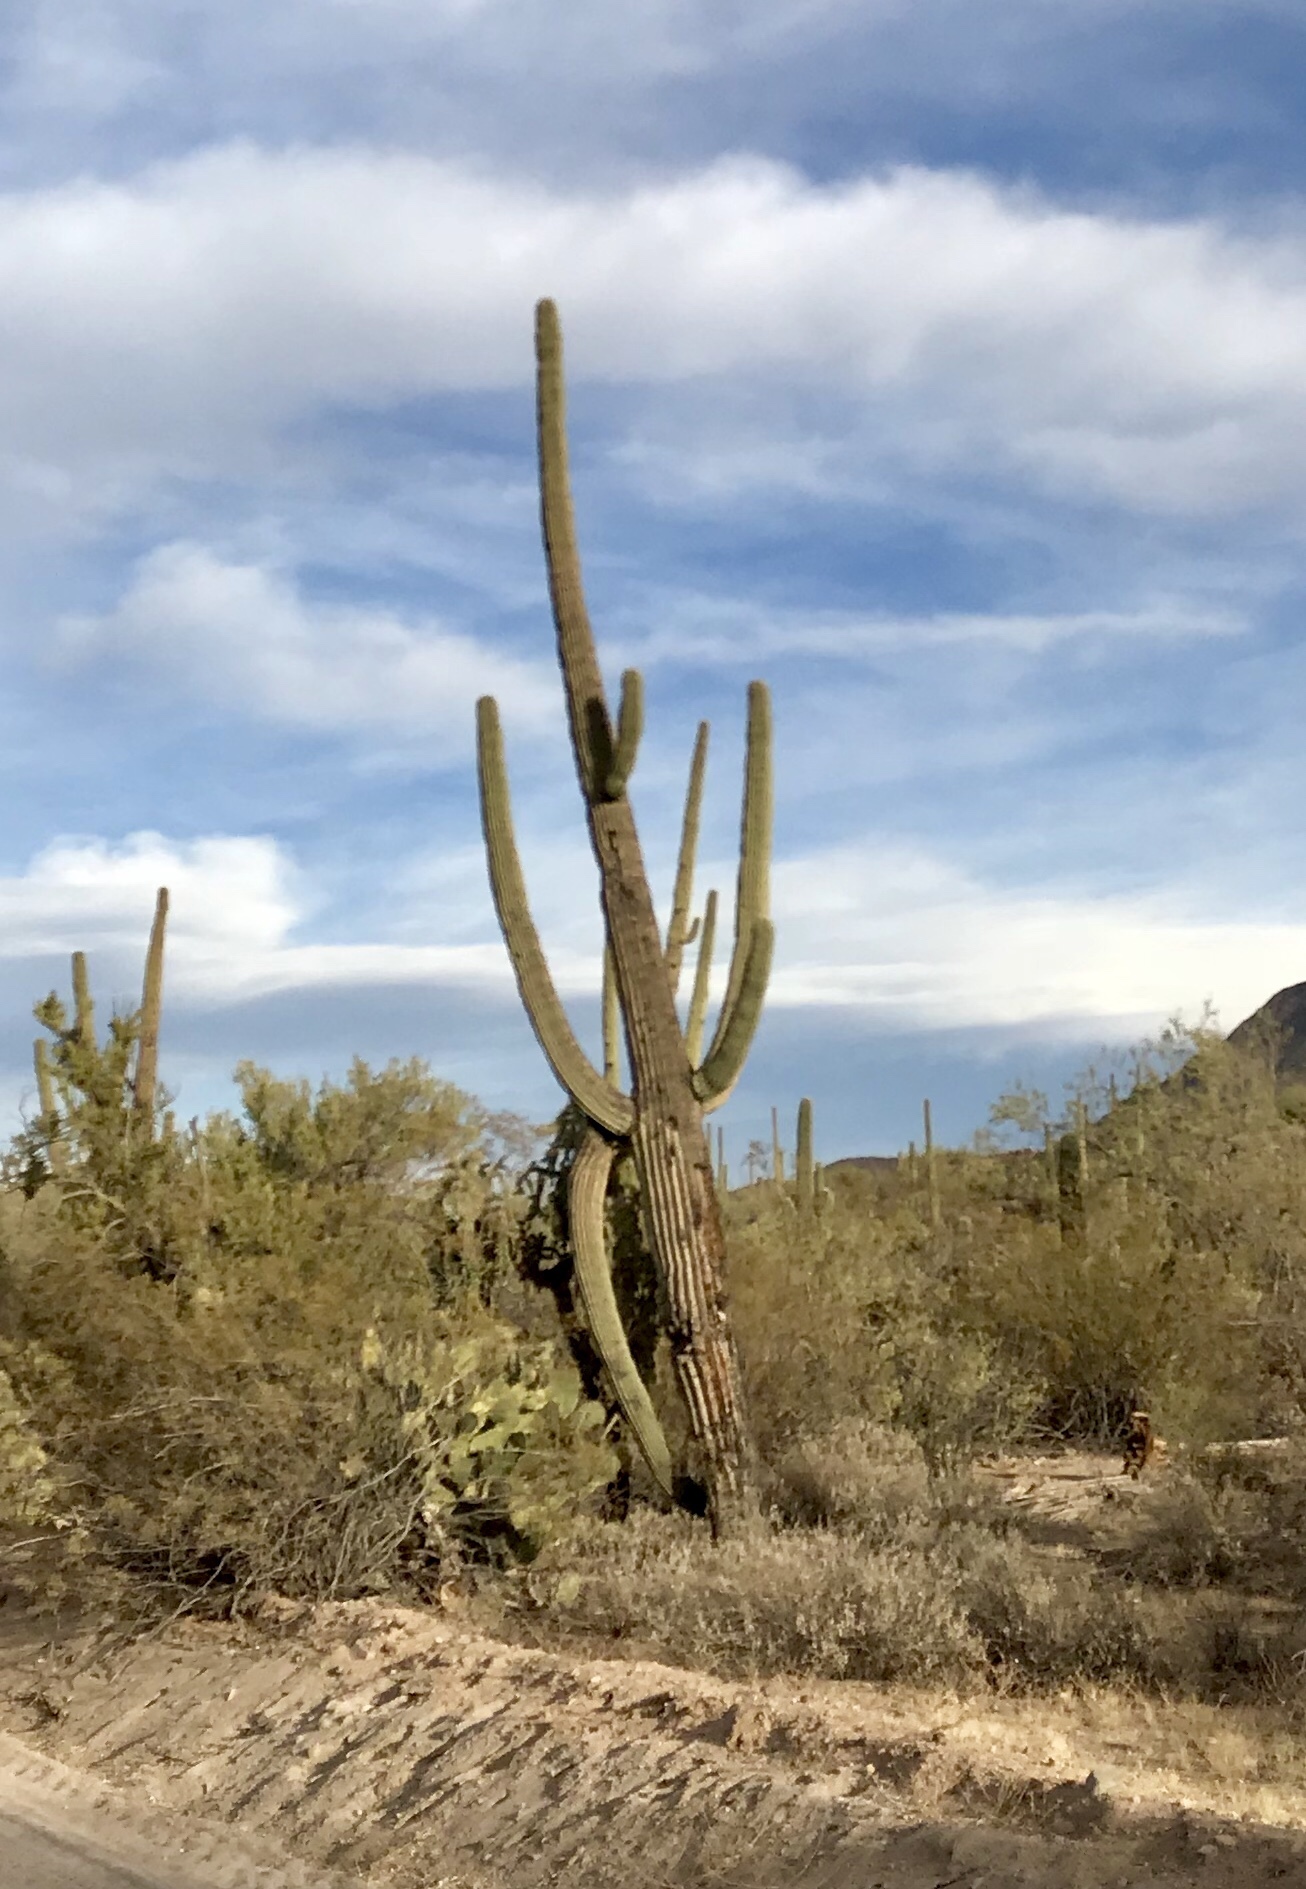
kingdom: Plantae
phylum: Tracheophyta
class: Magnoliopsida
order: Caryophyllales
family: Cactaceae
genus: Carnegiea
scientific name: Carnegiea gigantea
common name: Saguaro
